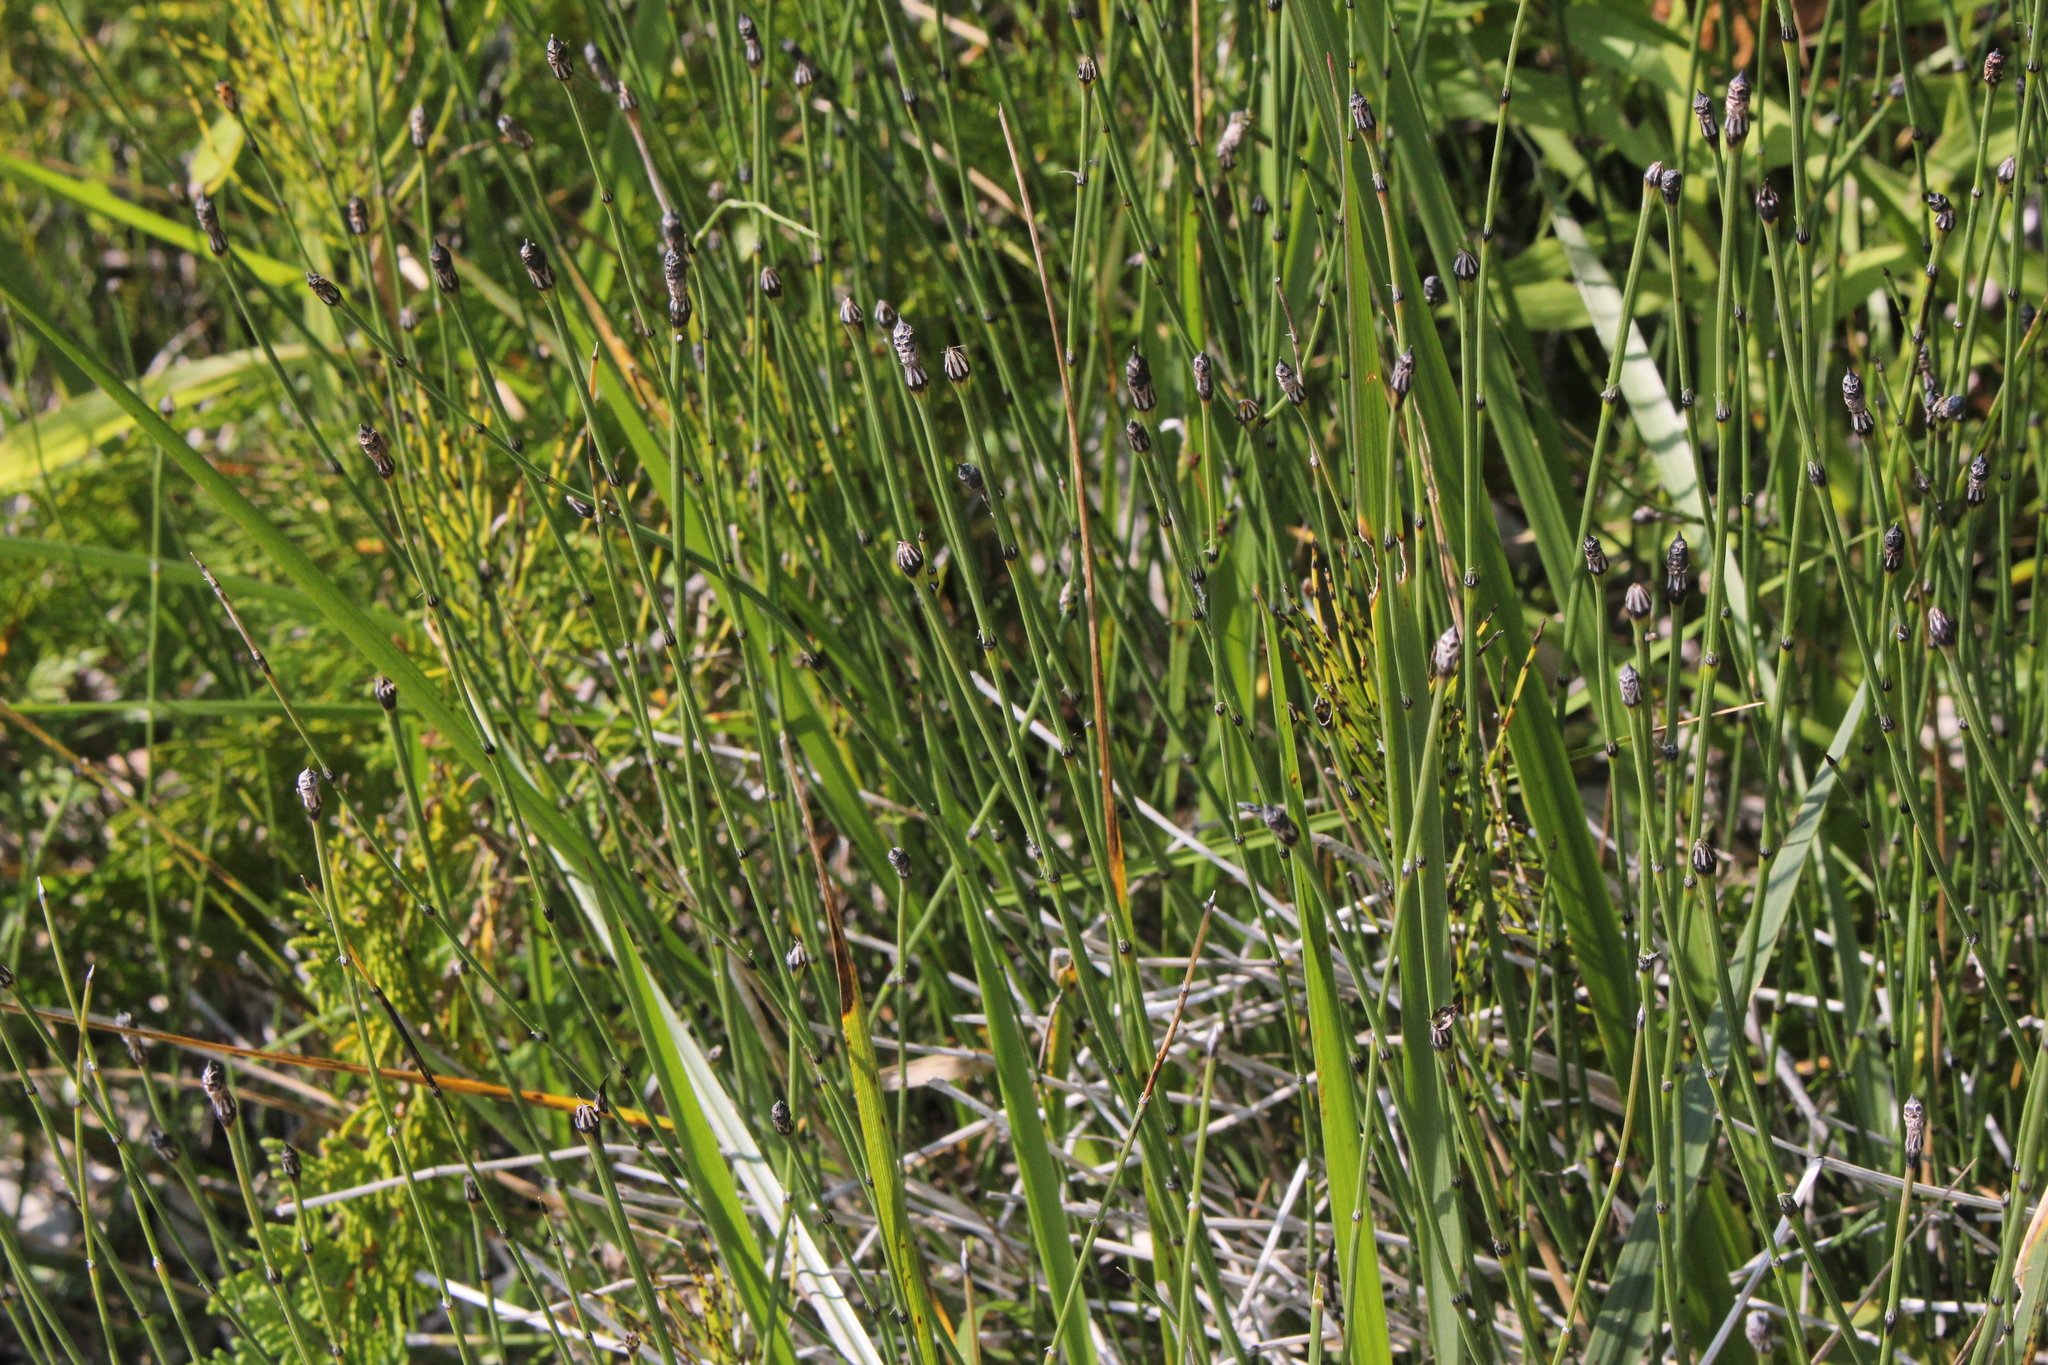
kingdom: Plantae
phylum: Tracheophyta
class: Polypodiopsida
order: Equisetales
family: Equisetaceae
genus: Equisetum
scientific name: Equisetum variegatum
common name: Variegated horsetail
